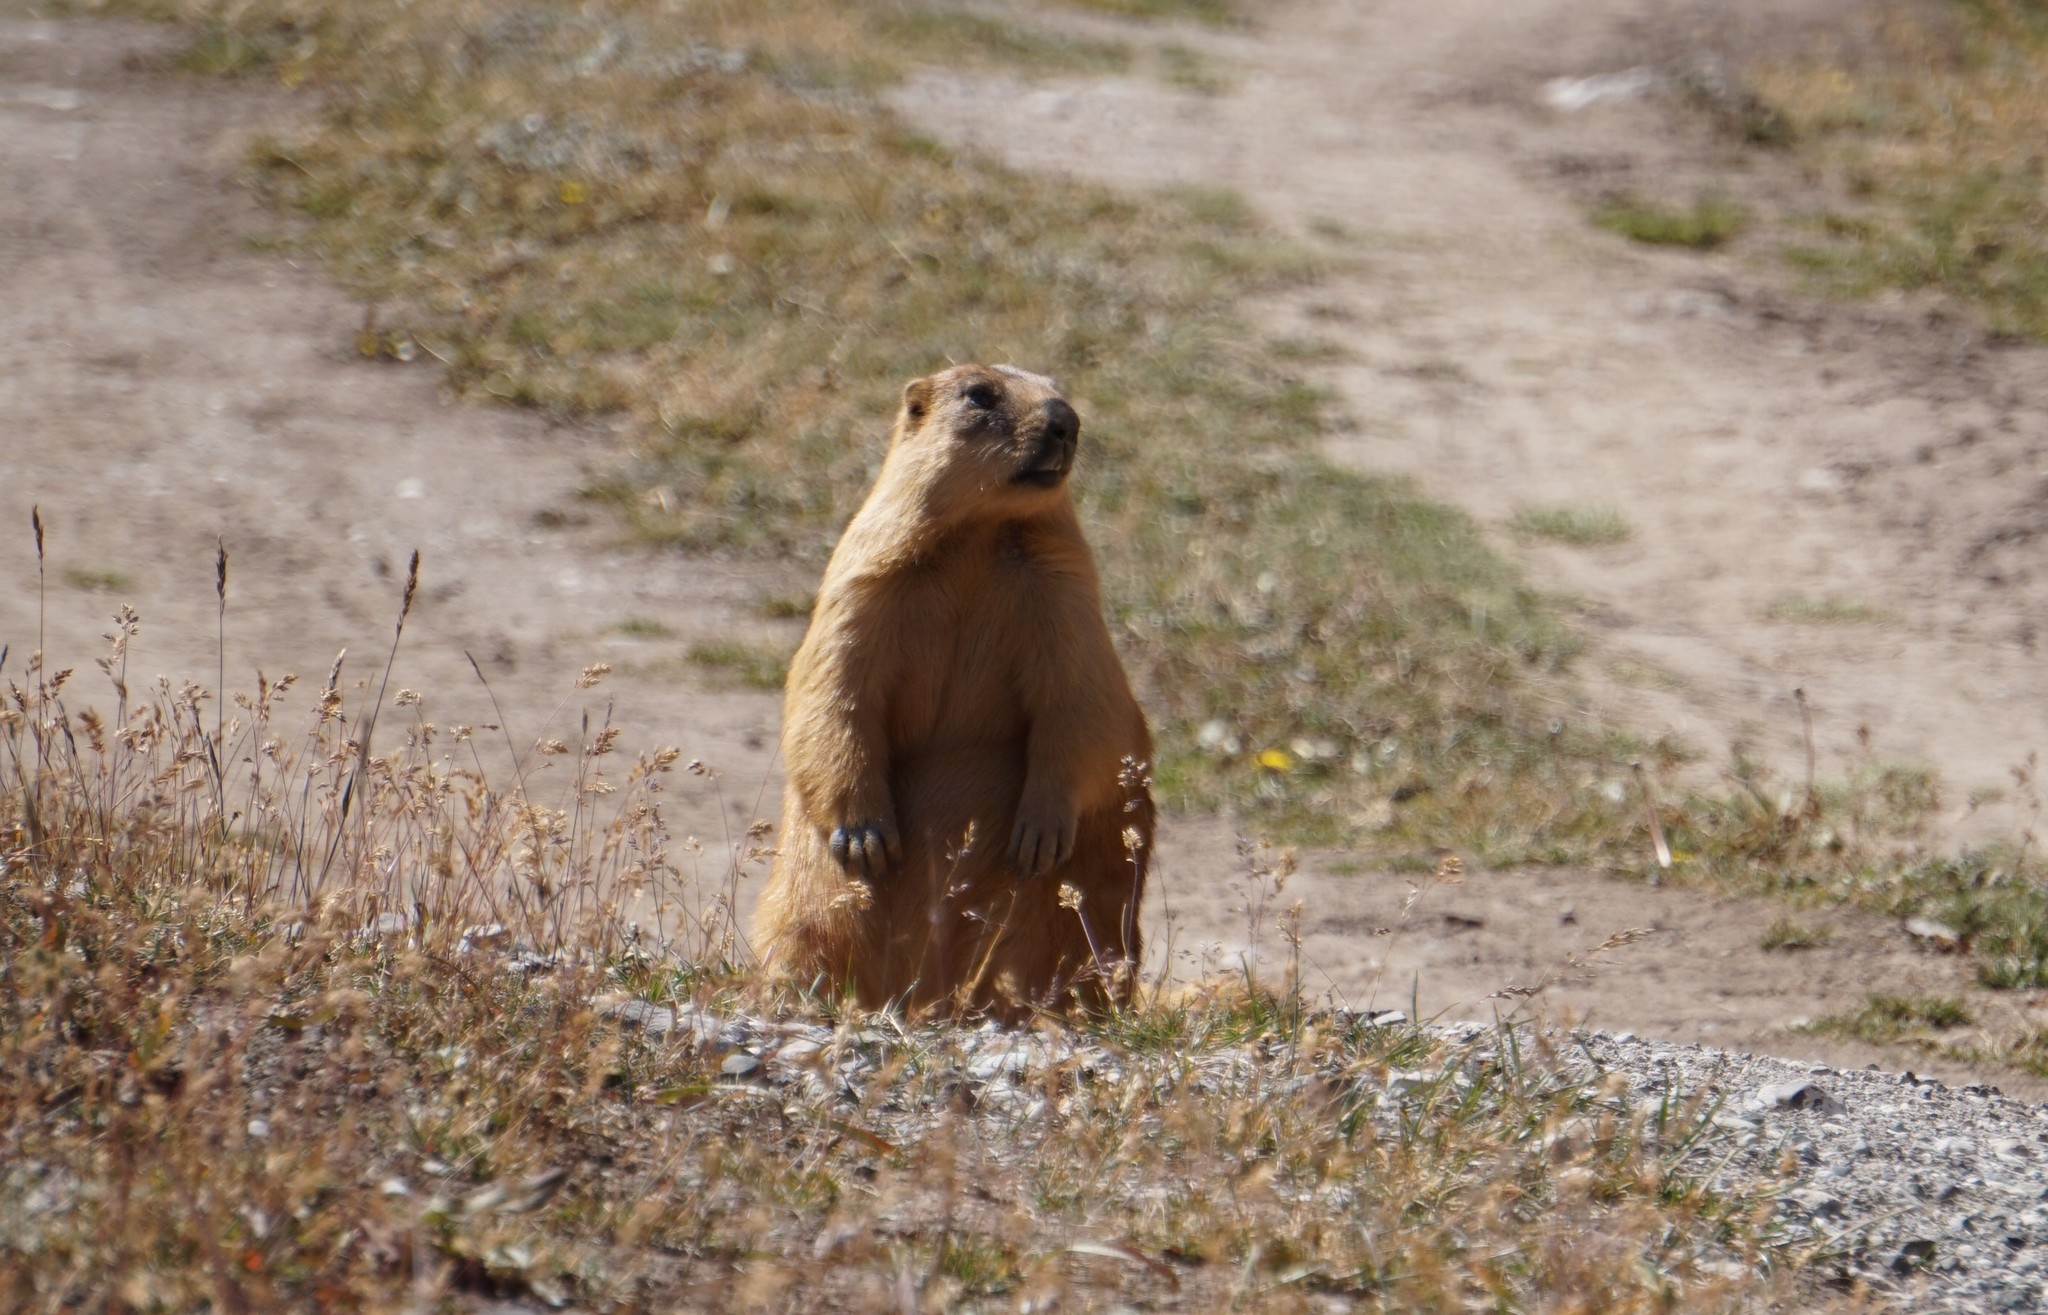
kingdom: Animalia
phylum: Chordata
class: Mammalia
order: Rodentia
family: Sciuridae
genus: Marmota
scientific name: Marmota caudata
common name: Long-tailed marmot
